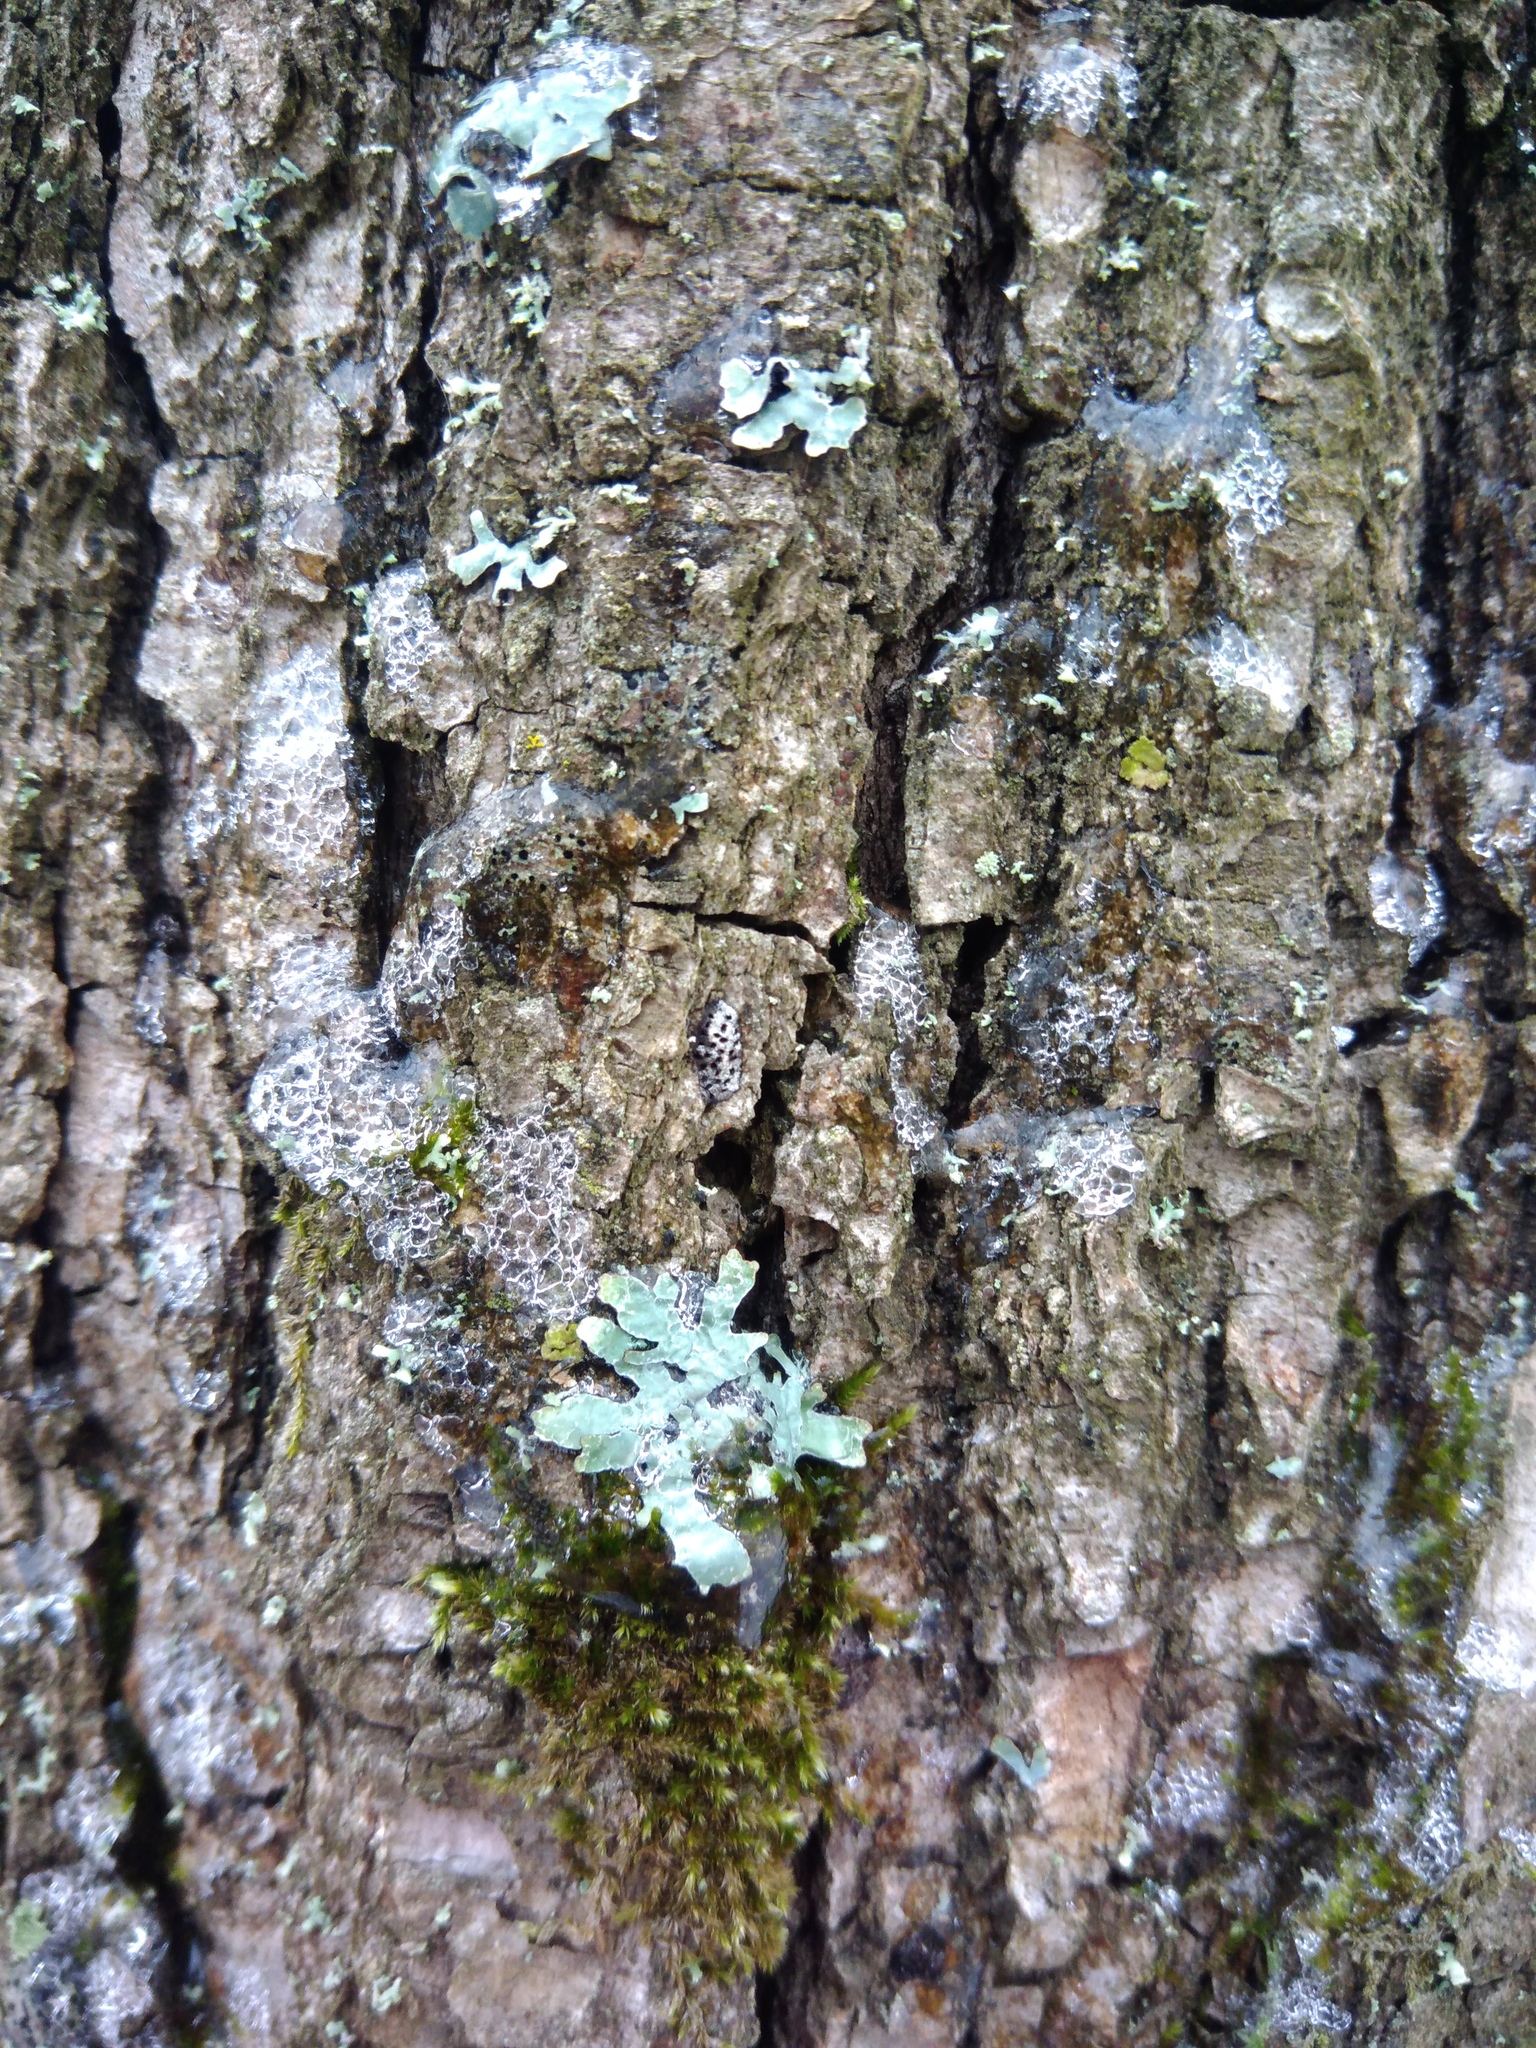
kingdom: Fungi
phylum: Ascomycota
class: Lecanoromycetes
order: Lecanorales
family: Parmeliaceae
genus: Parmelia
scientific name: Parmelia sulcata
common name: Netted shield lichen
